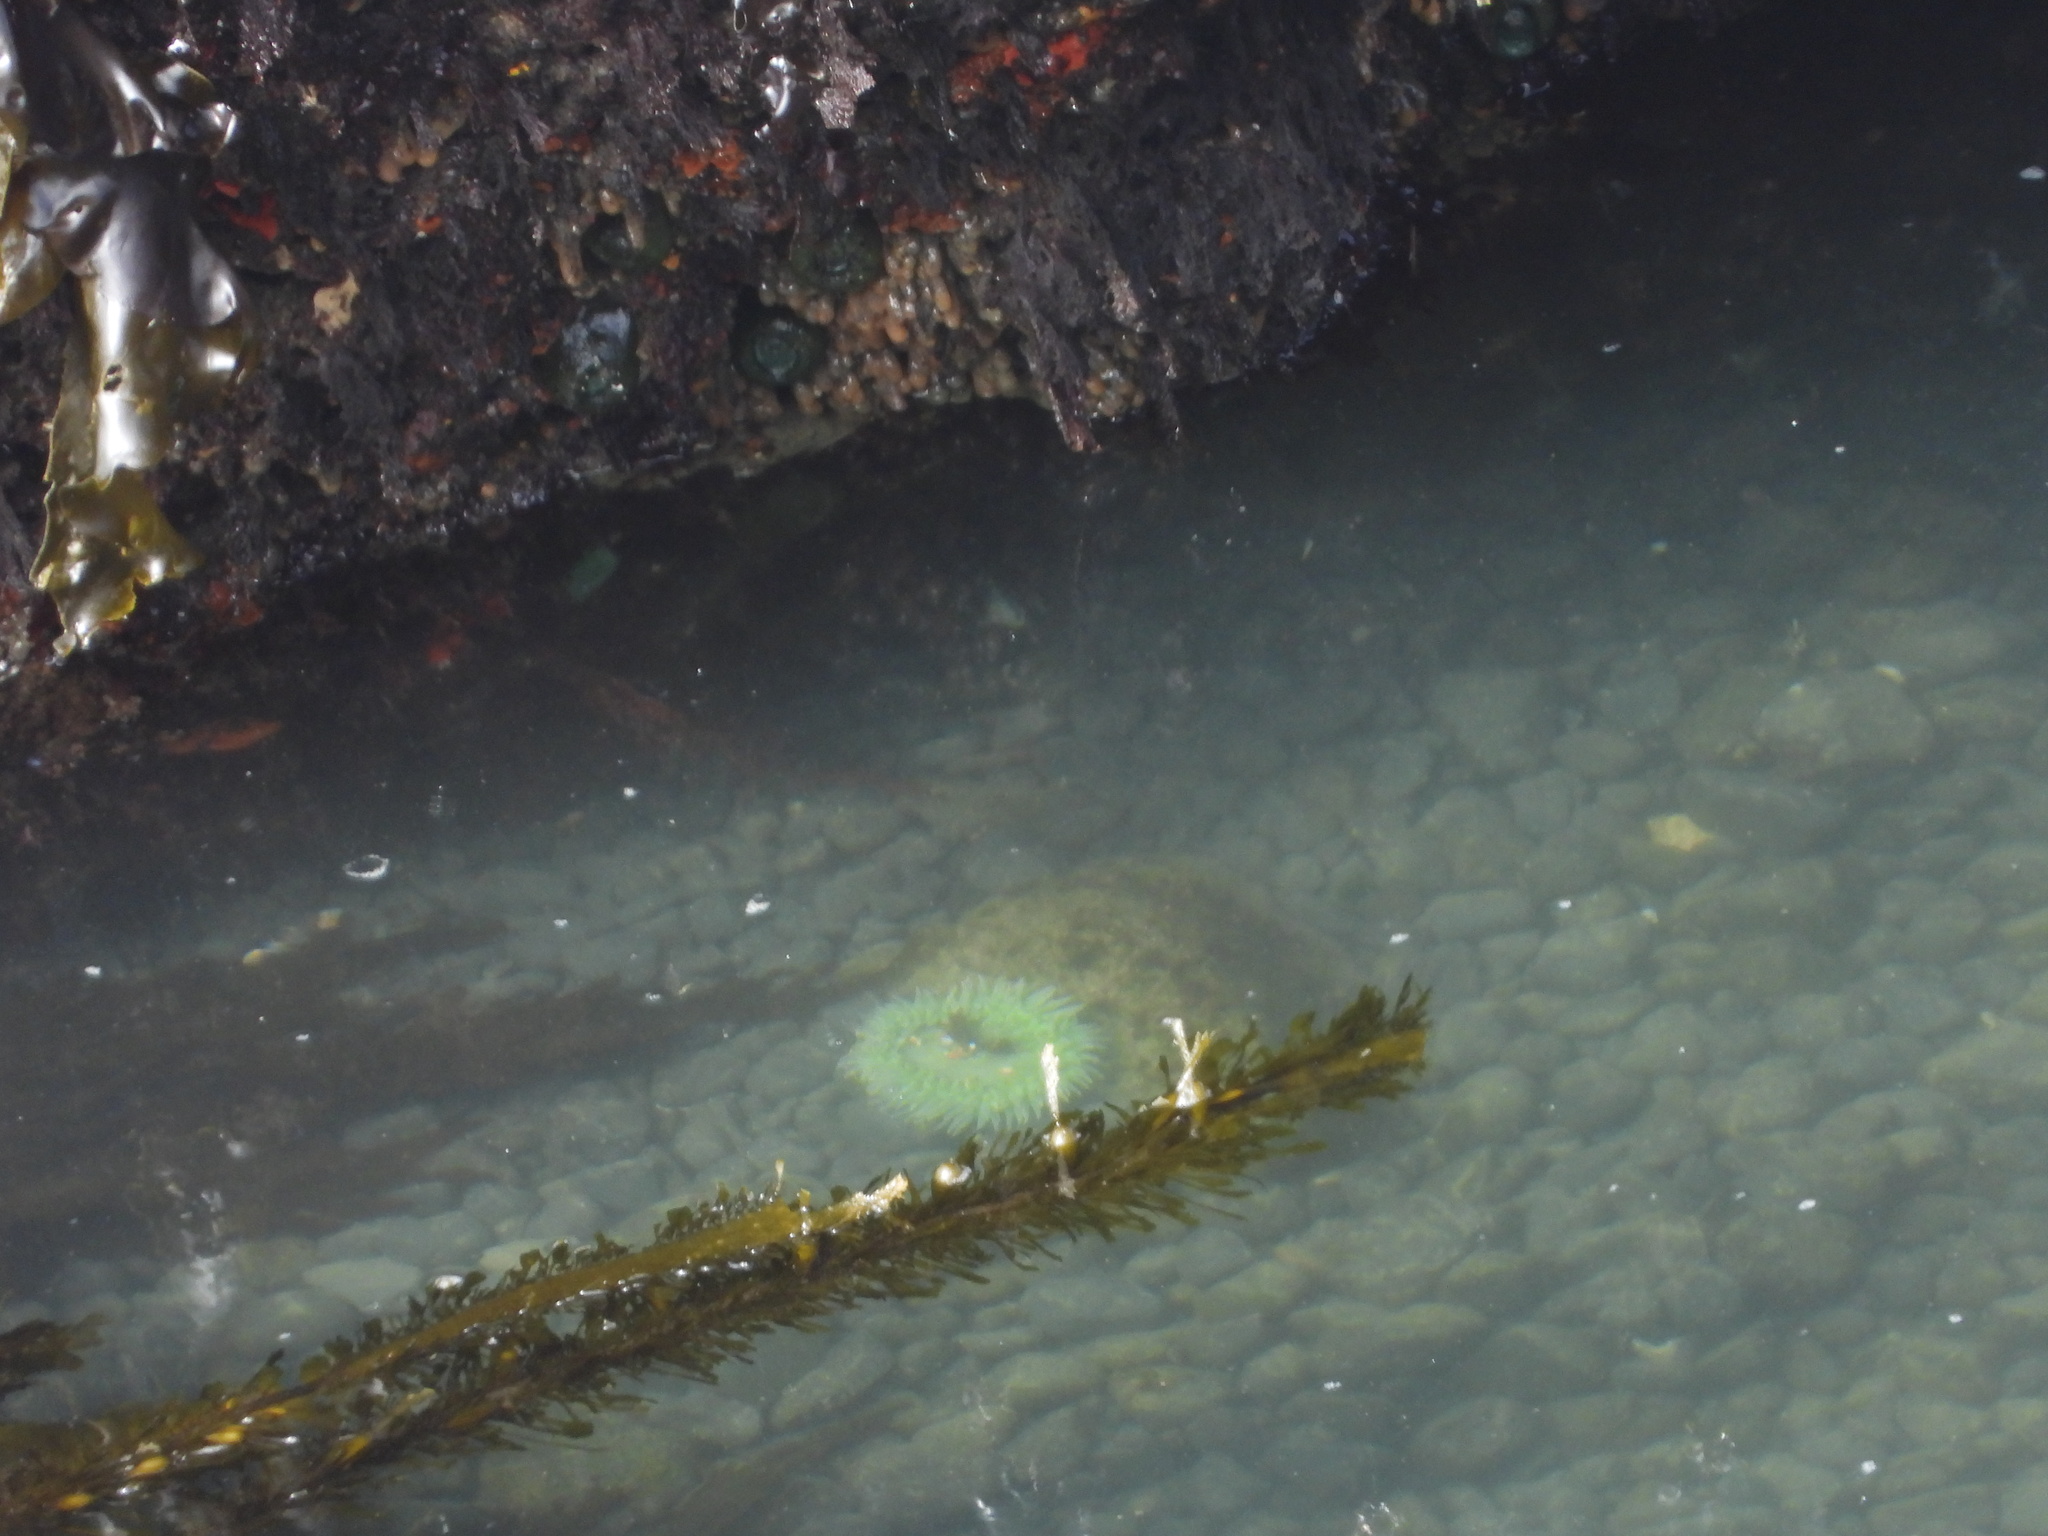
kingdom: Animalia
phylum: Cnidaria
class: Anthozoa
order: Actiniaria
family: Actiniidae
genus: Anthopleura
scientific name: Anthopleura xanthogrammica
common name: Giant green anemone
